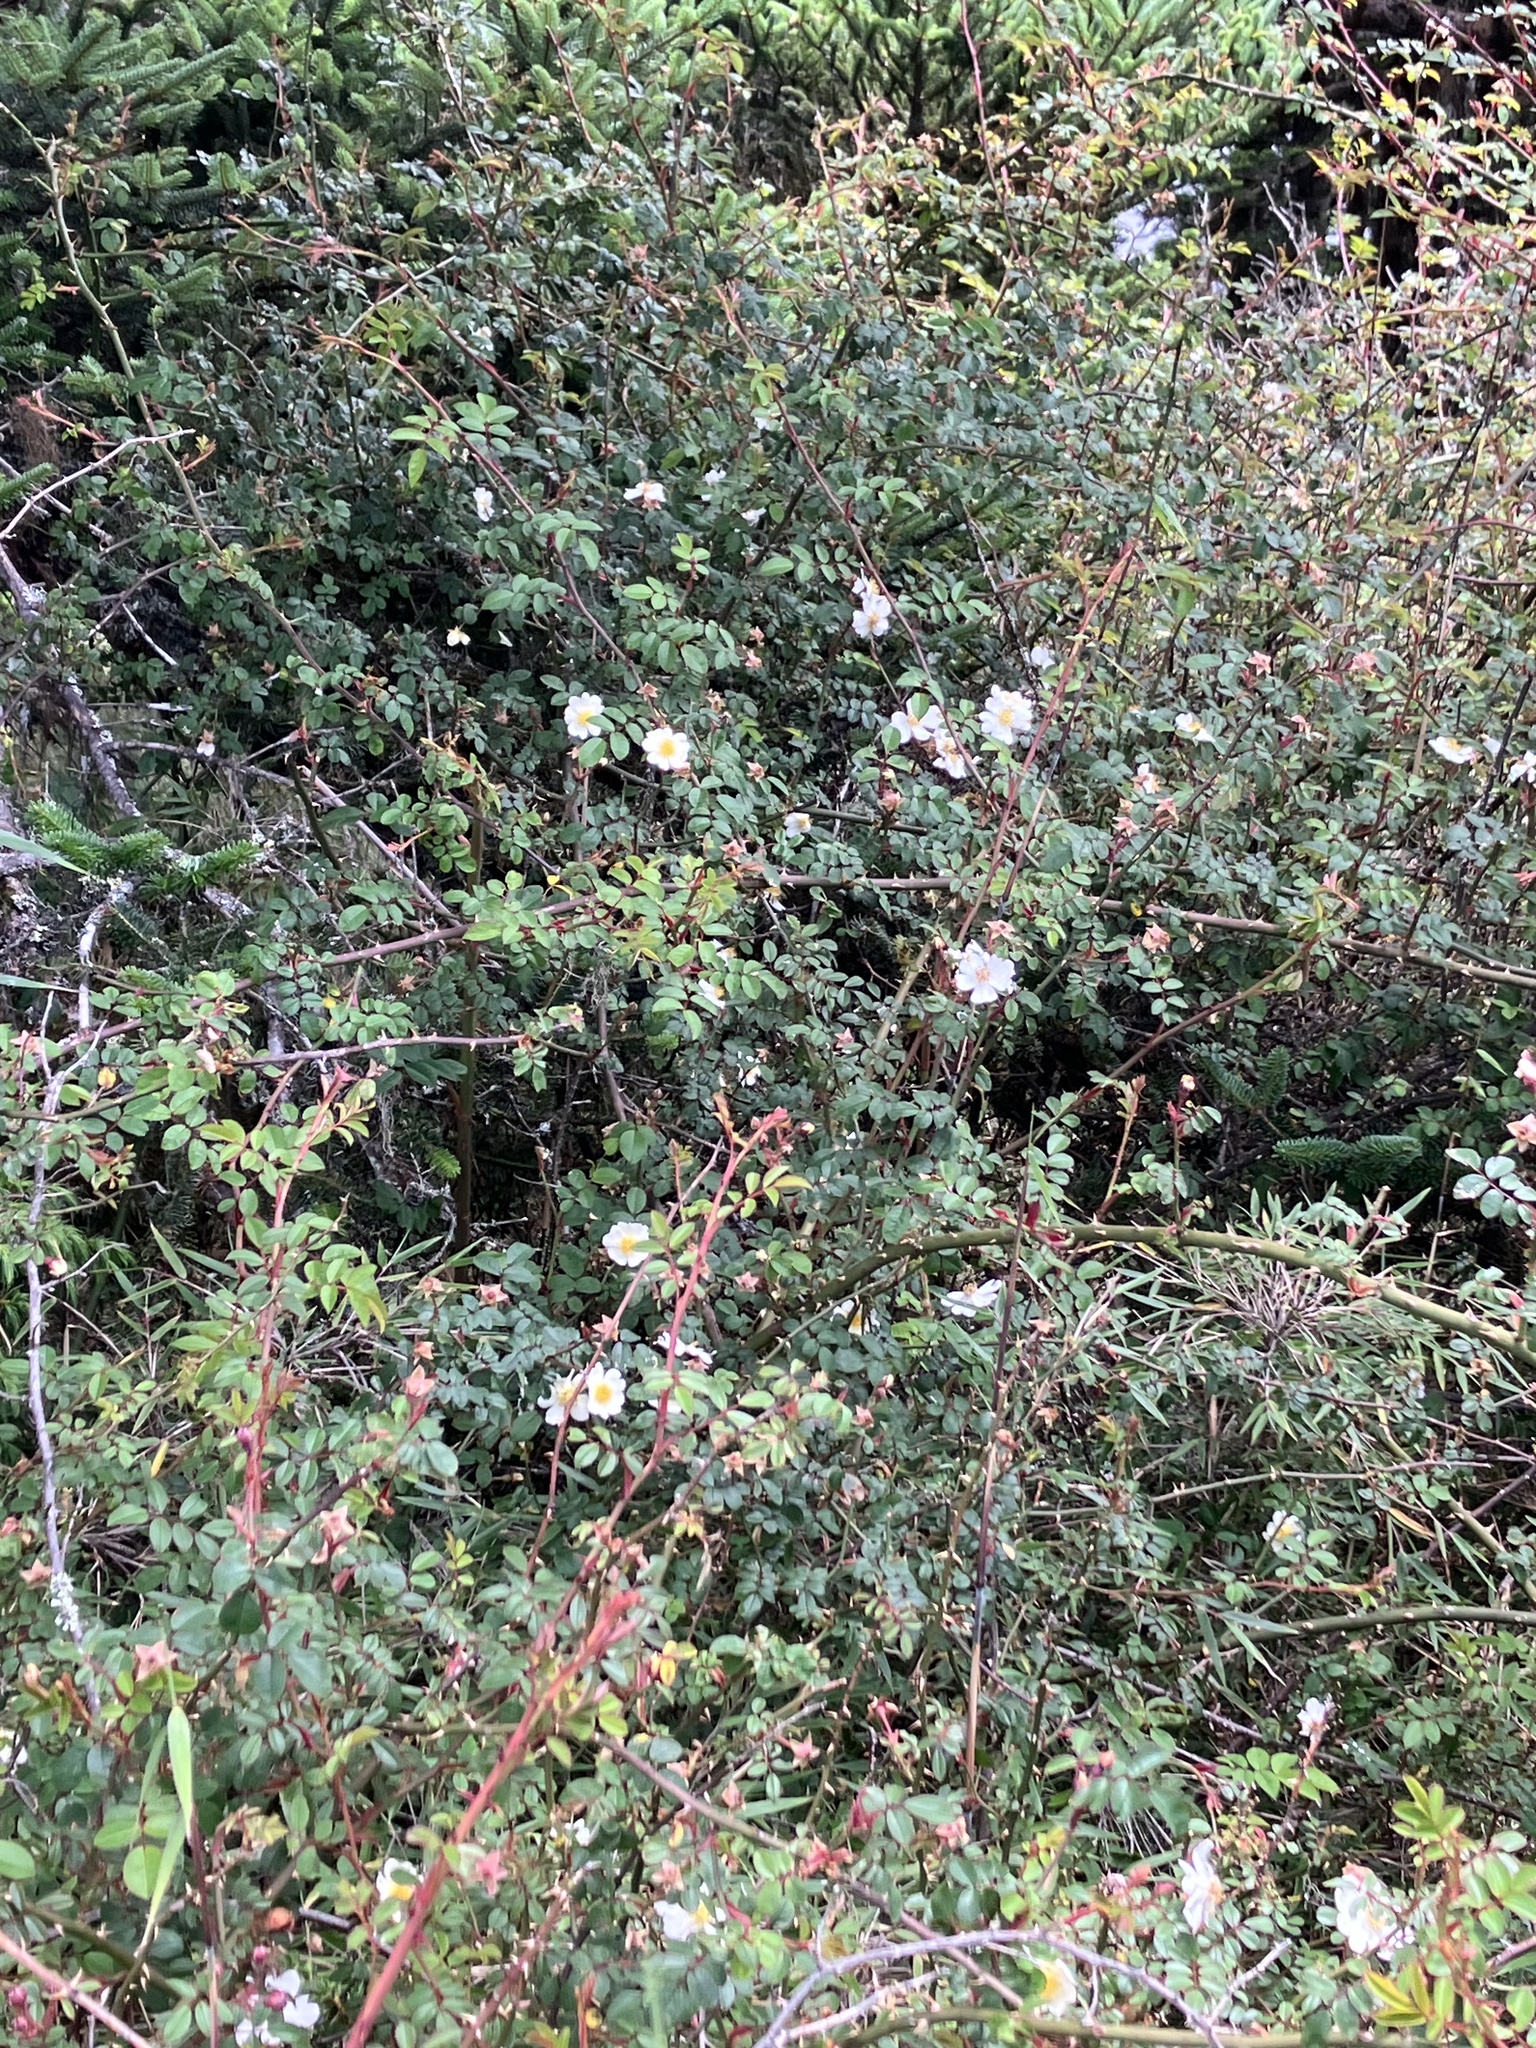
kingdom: Plantae
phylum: Tracheophyta
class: Magnoliopsida
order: Rosales
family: Rosaceae
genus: Rosa
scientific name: Rosa transmorrisonensis
